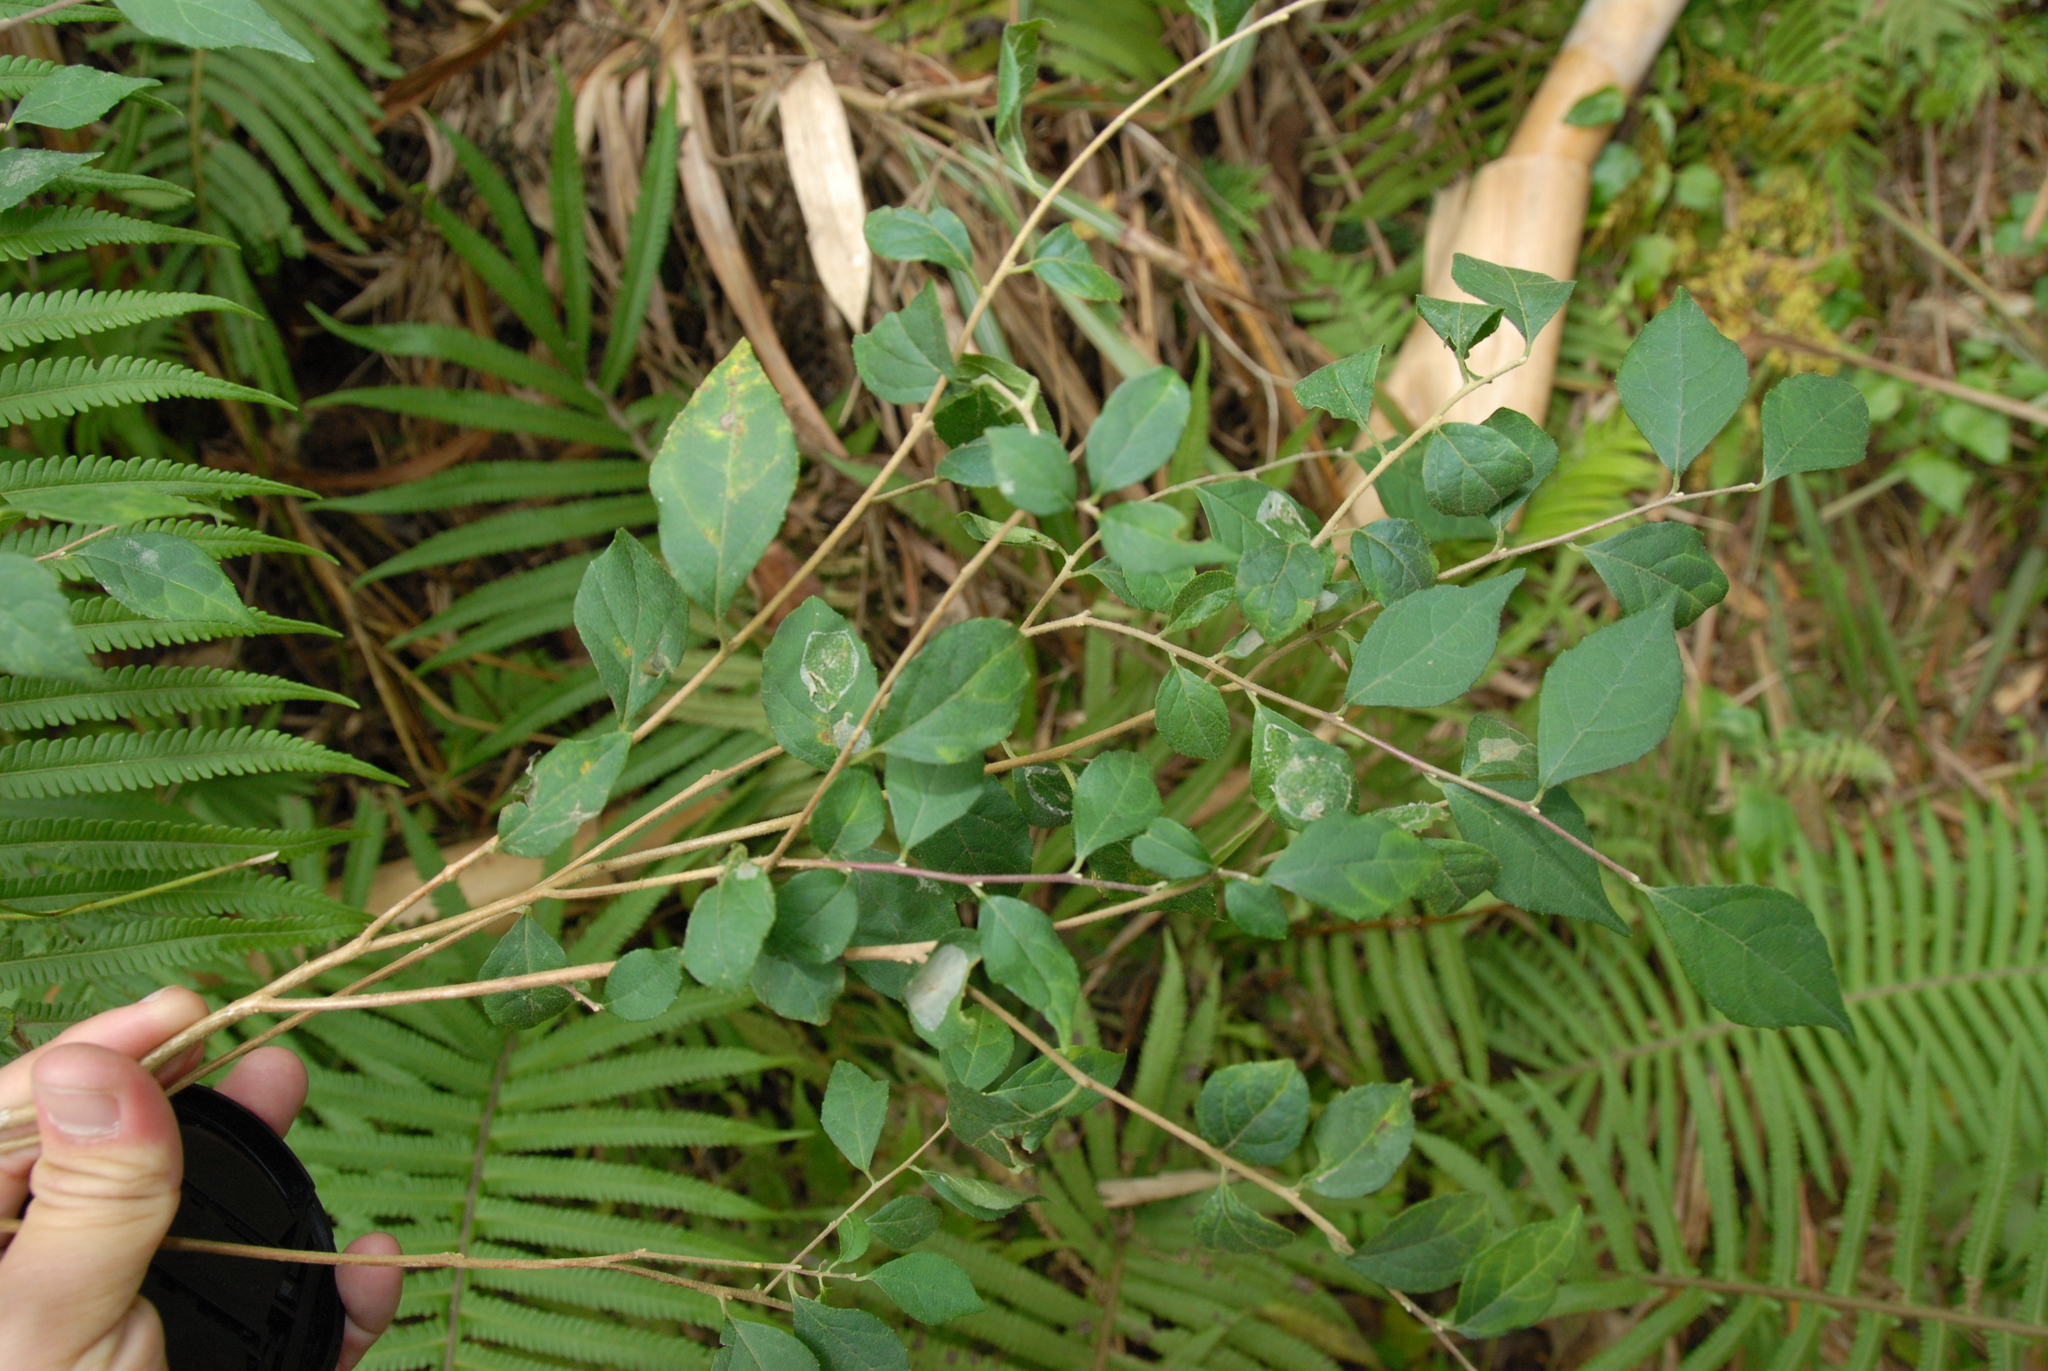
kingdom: Plantae
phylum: Tracheophyta
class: Magnoliopsida
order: Ericales
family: Styracaceae
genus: Styrax
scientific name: Styrax formosanus
